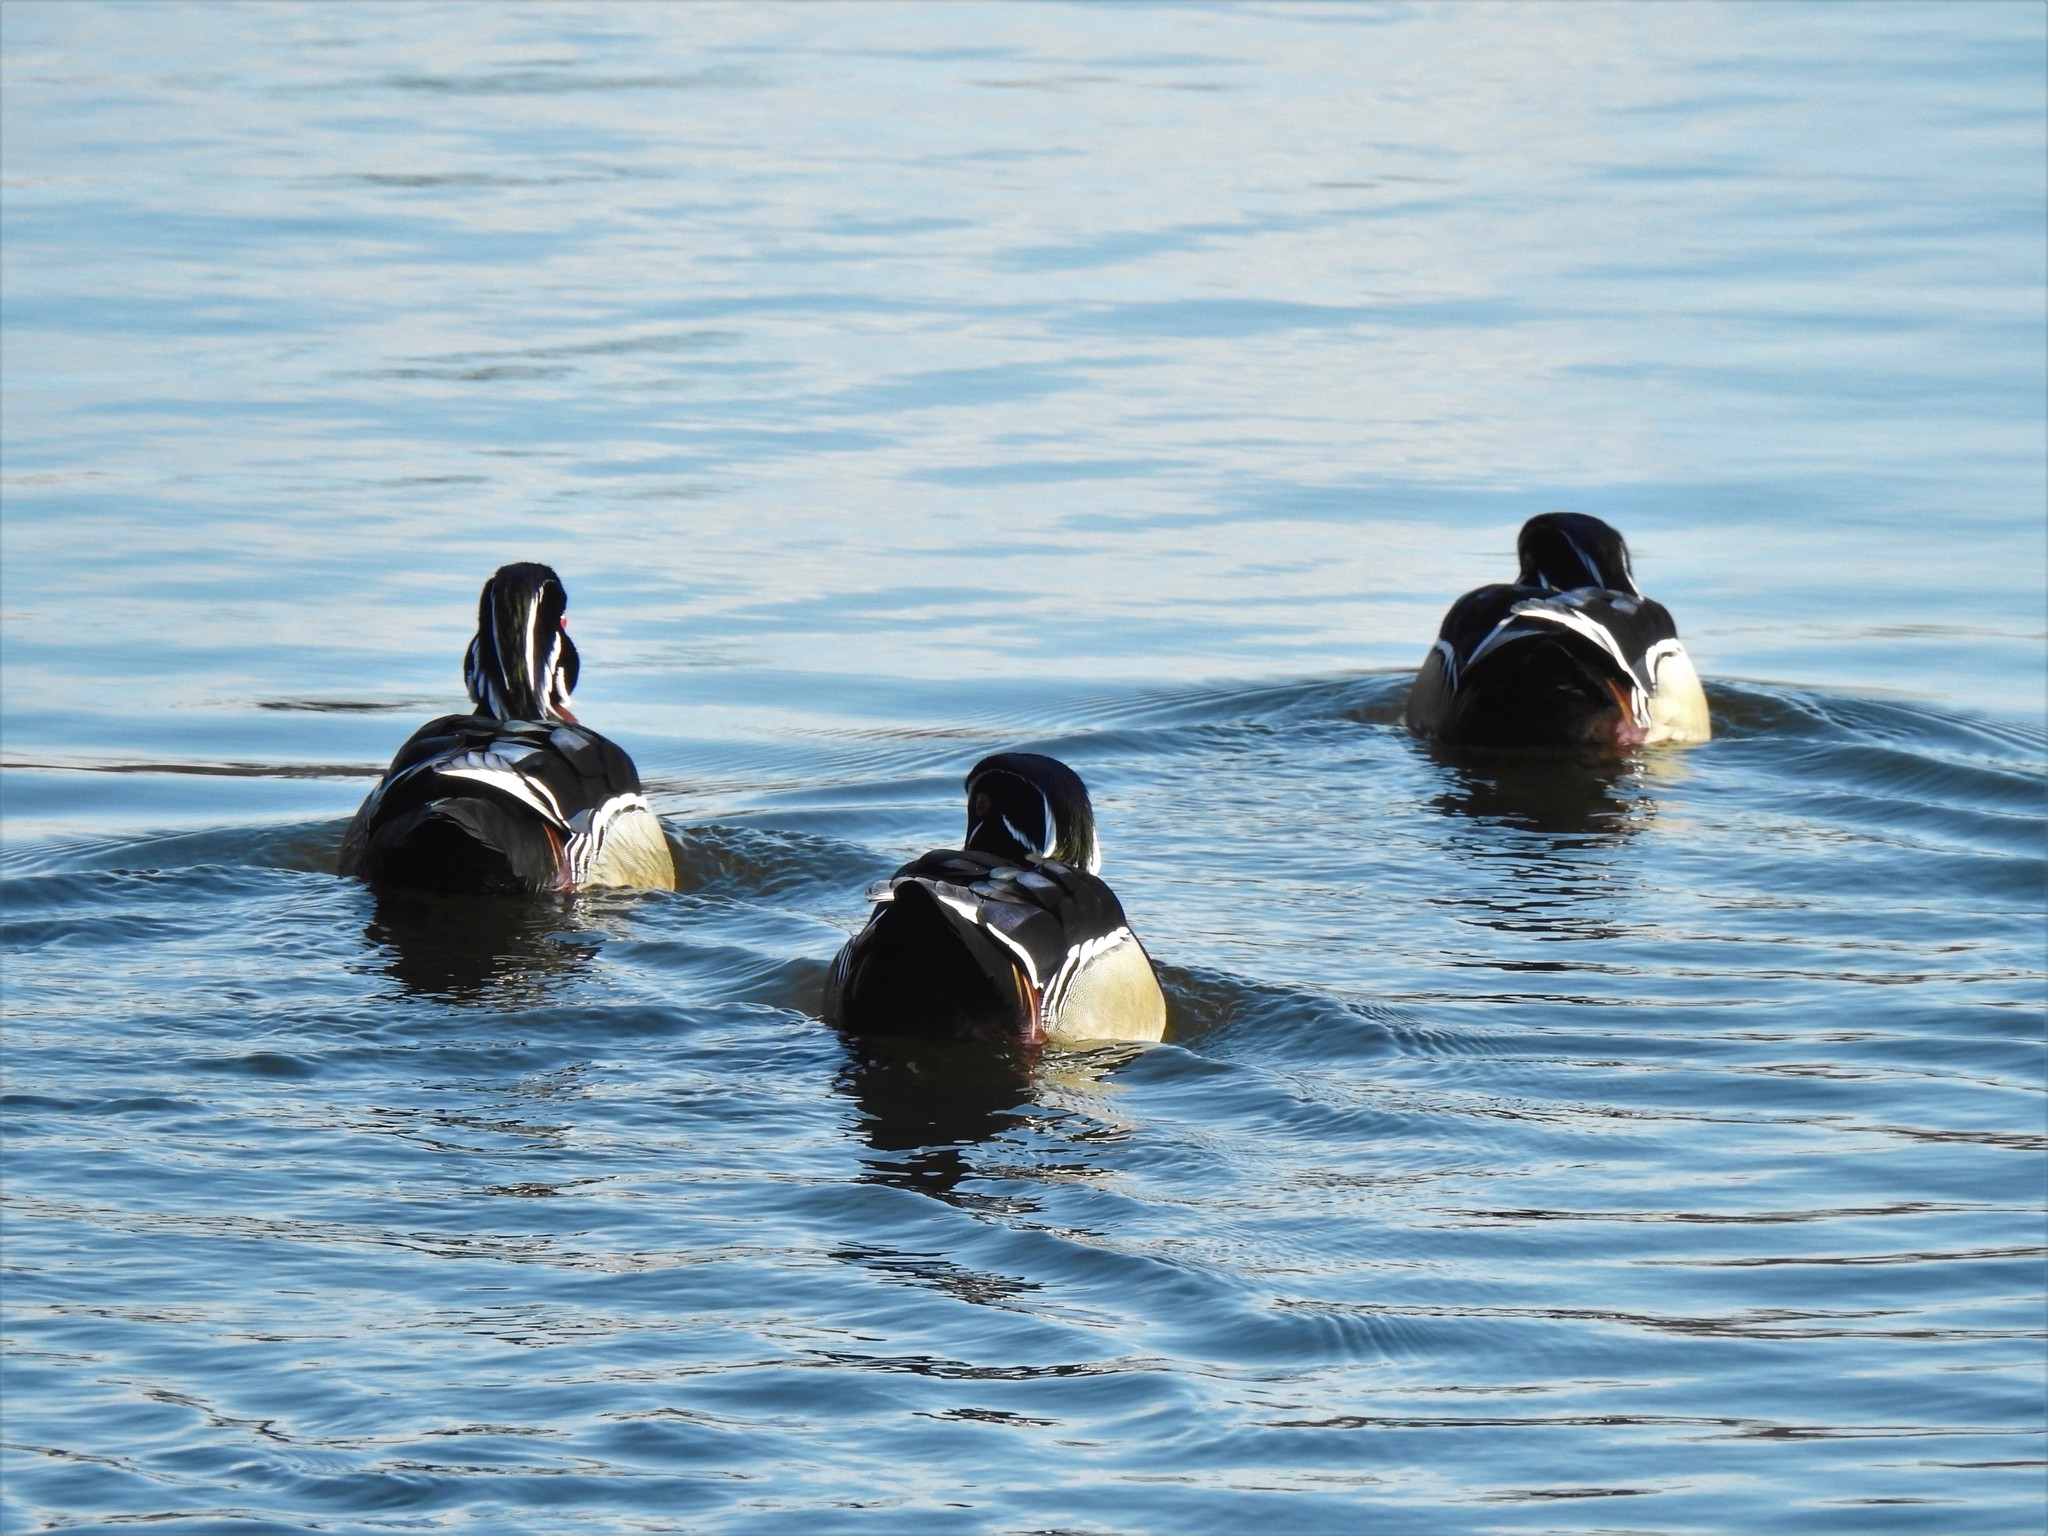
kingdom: Animalia
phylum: Chordata
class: Aves
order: Anseriformes
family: Anatidae
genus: Aix
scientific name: Aix sponsa
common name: Wood duck
